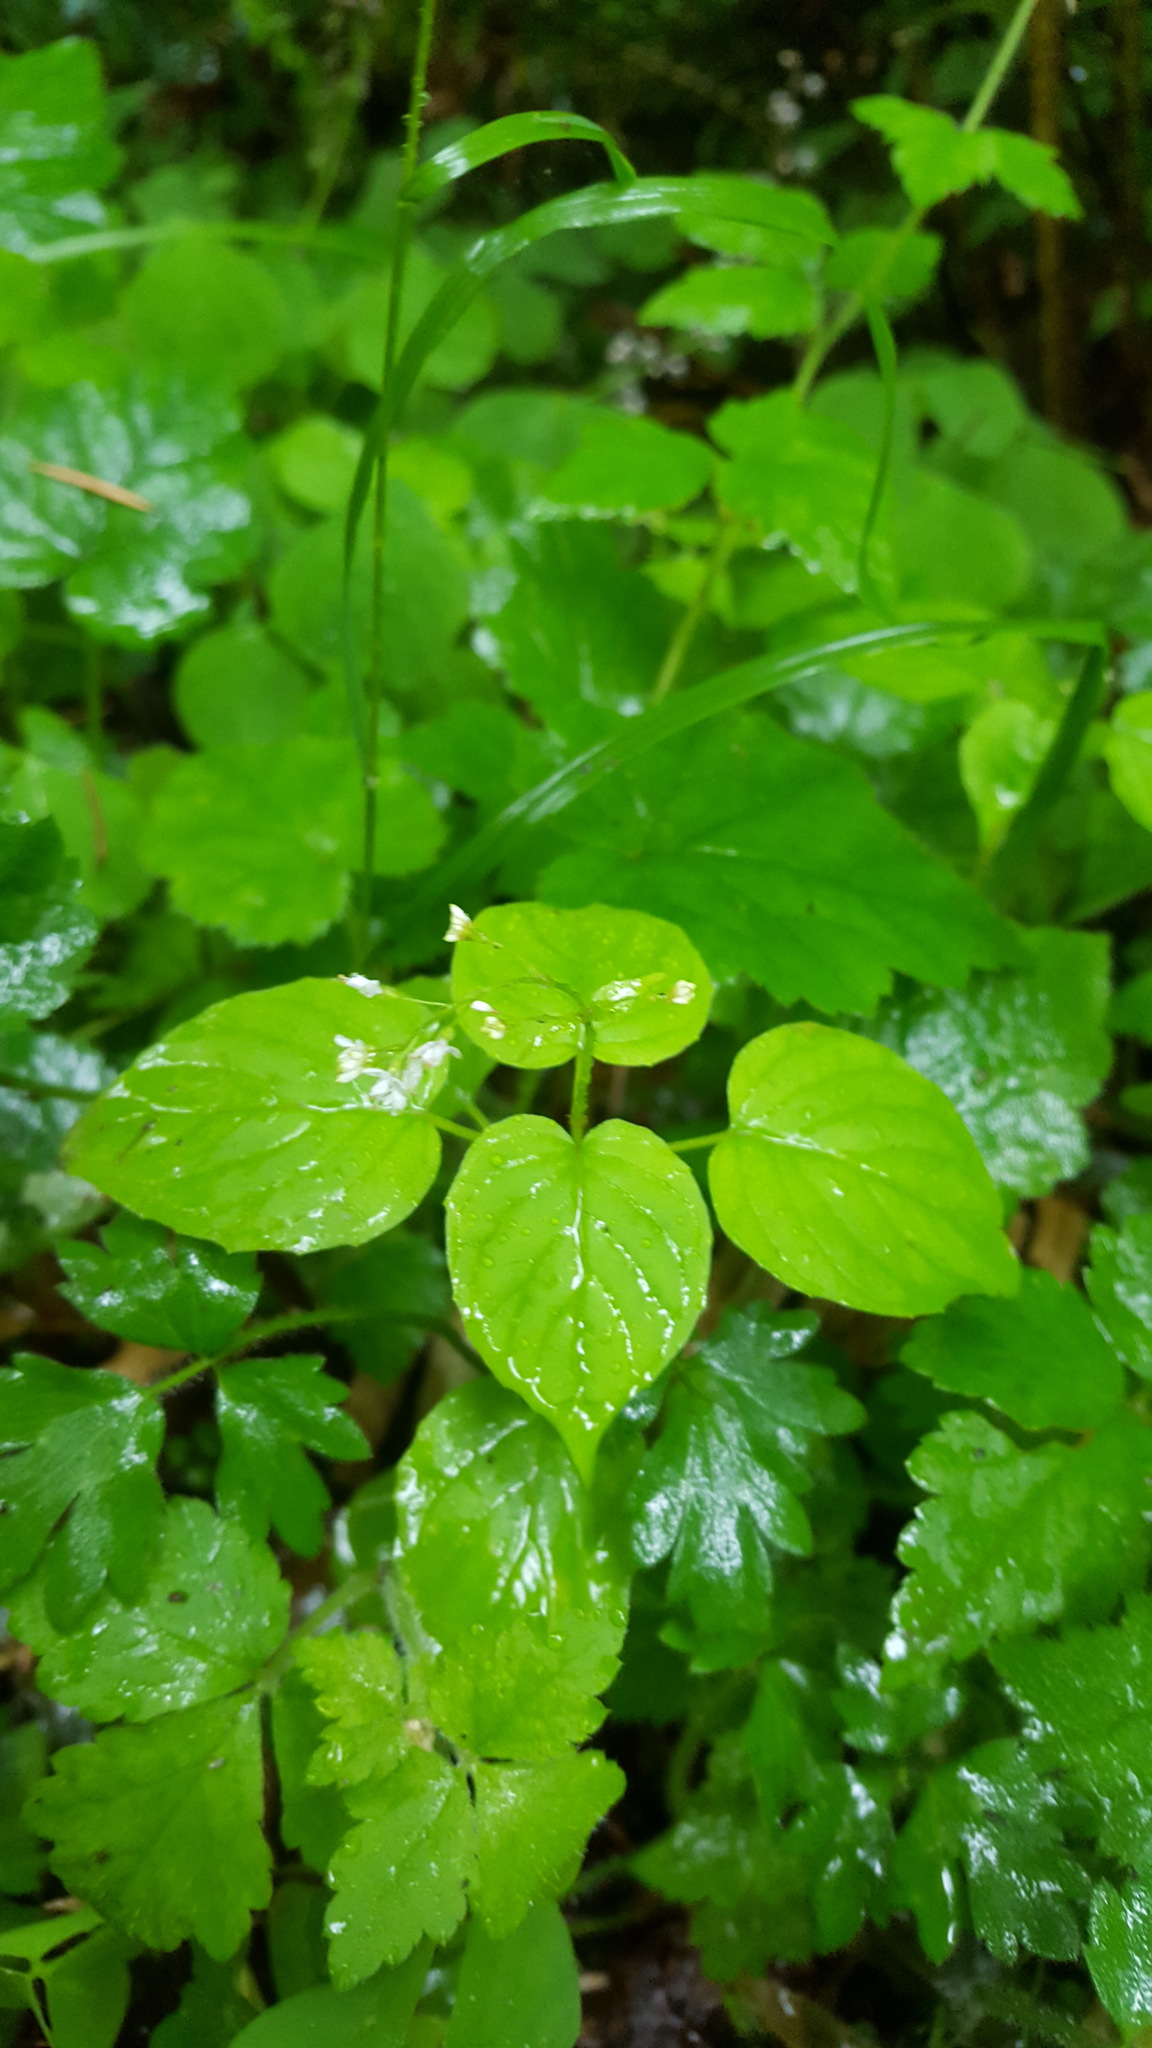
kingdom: Plantae
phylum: Tracheophyta
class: Magnoliopsida
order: Myrtales
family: Onagraceae
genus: Circaea
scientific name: Circaea alpina
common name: Alpine enchanter's-nightshade
